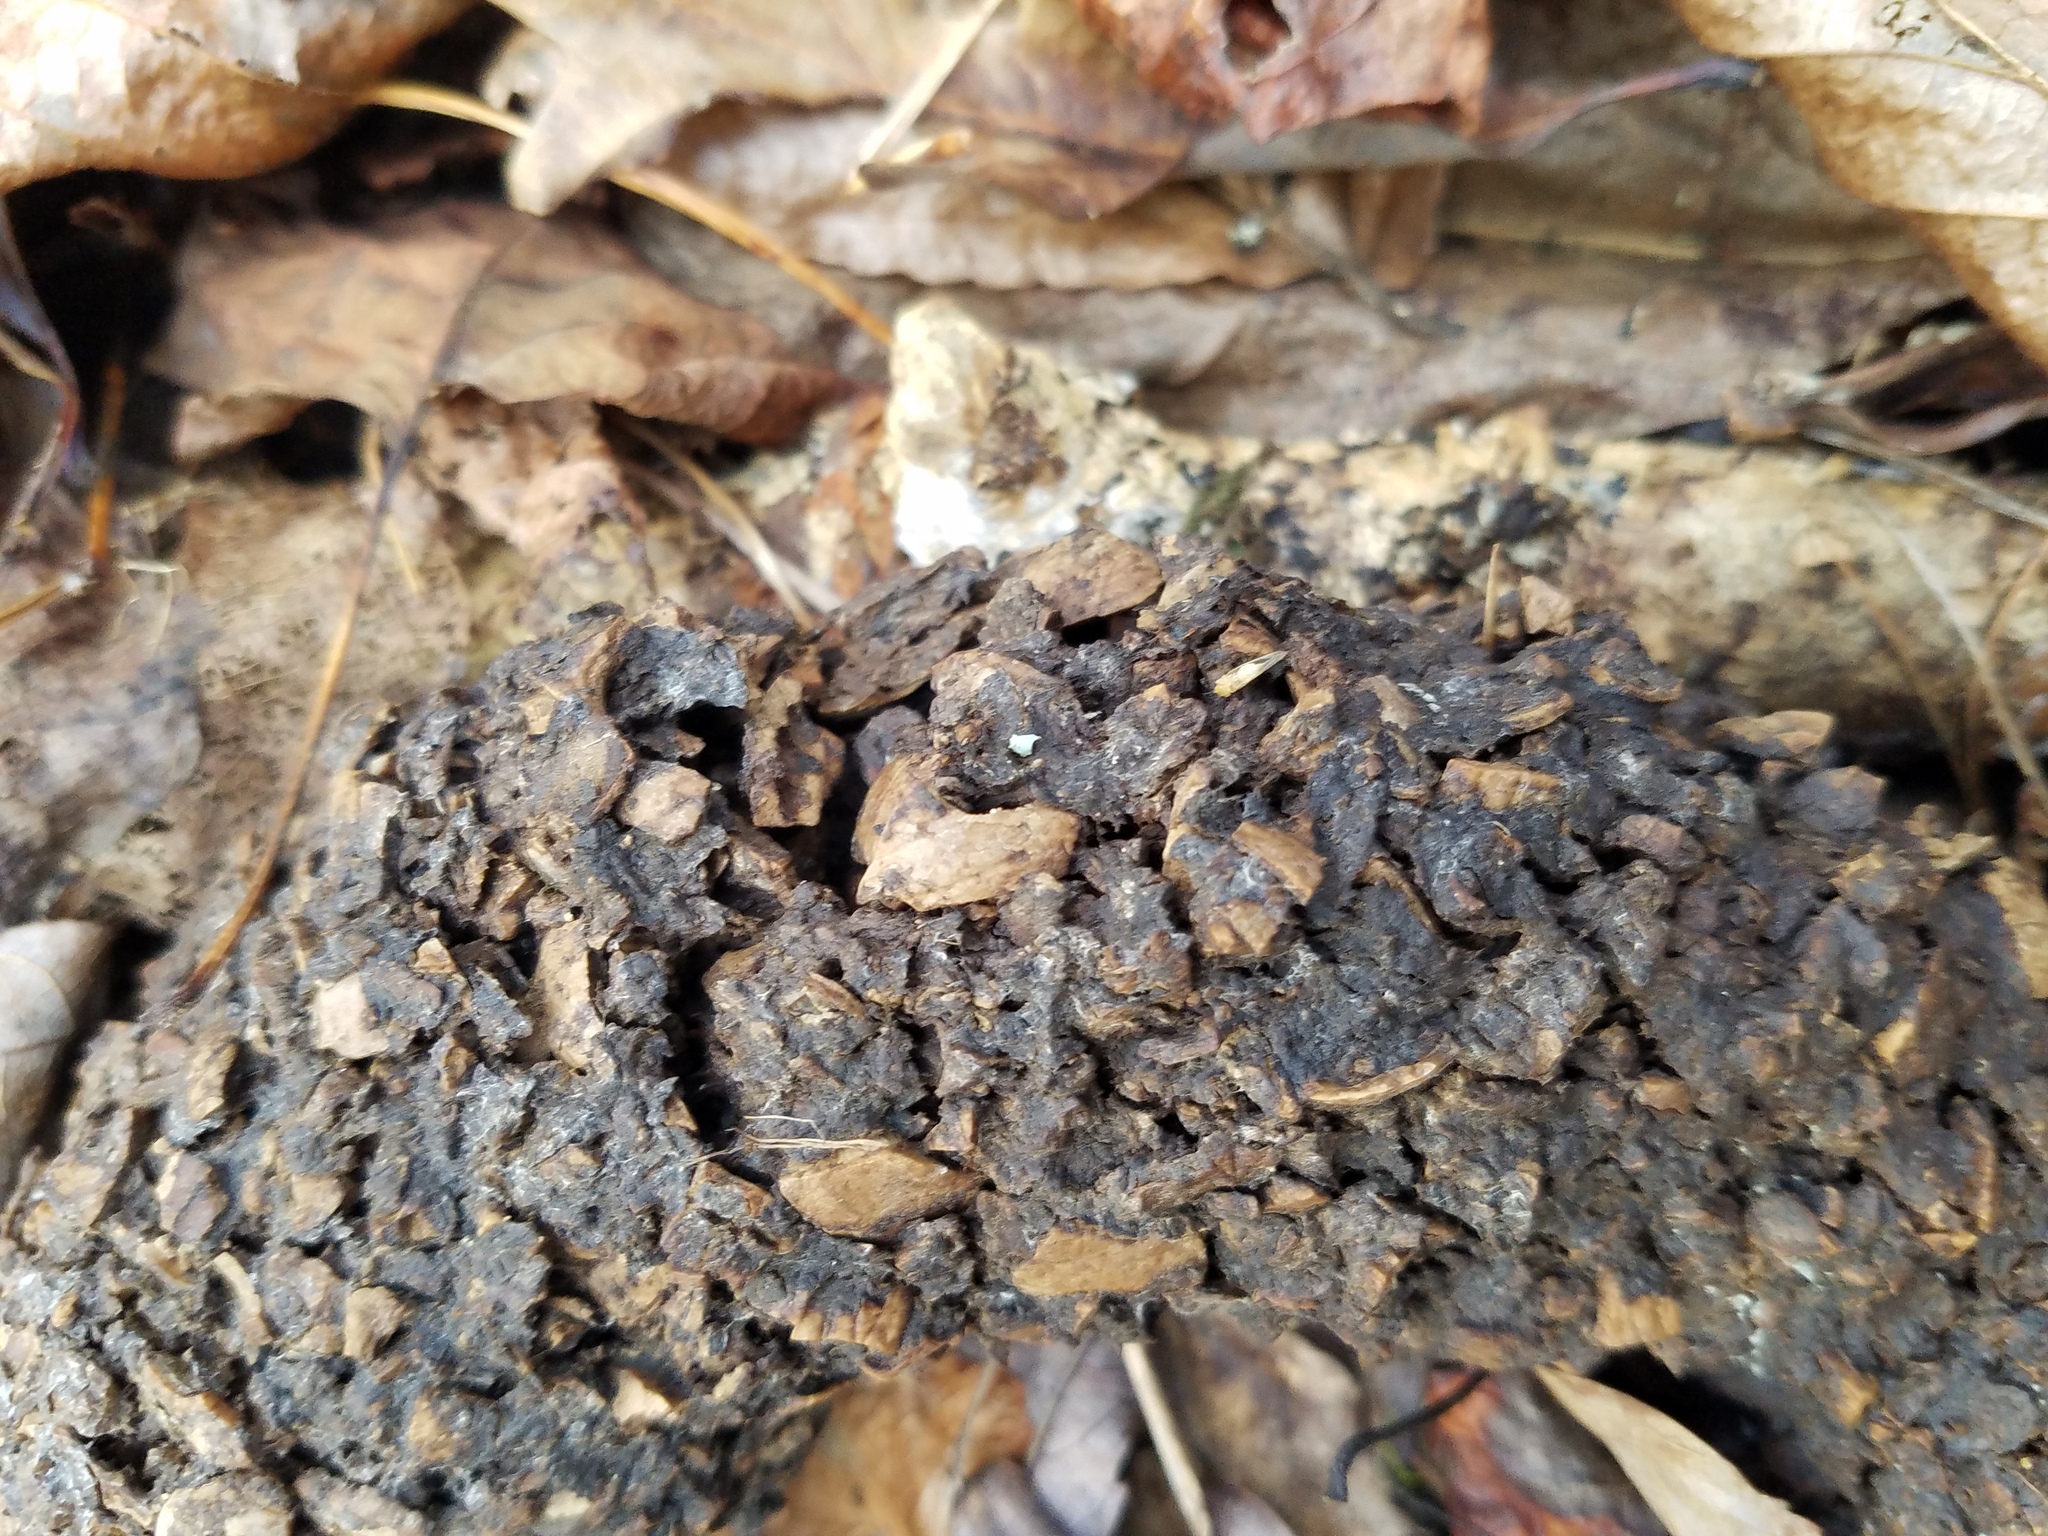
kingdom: Animalia
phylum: Chordata
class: Mammalia
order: Carnivora
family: Ursidae
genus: Ursus
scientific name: Ursus americanus
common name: American black bear
